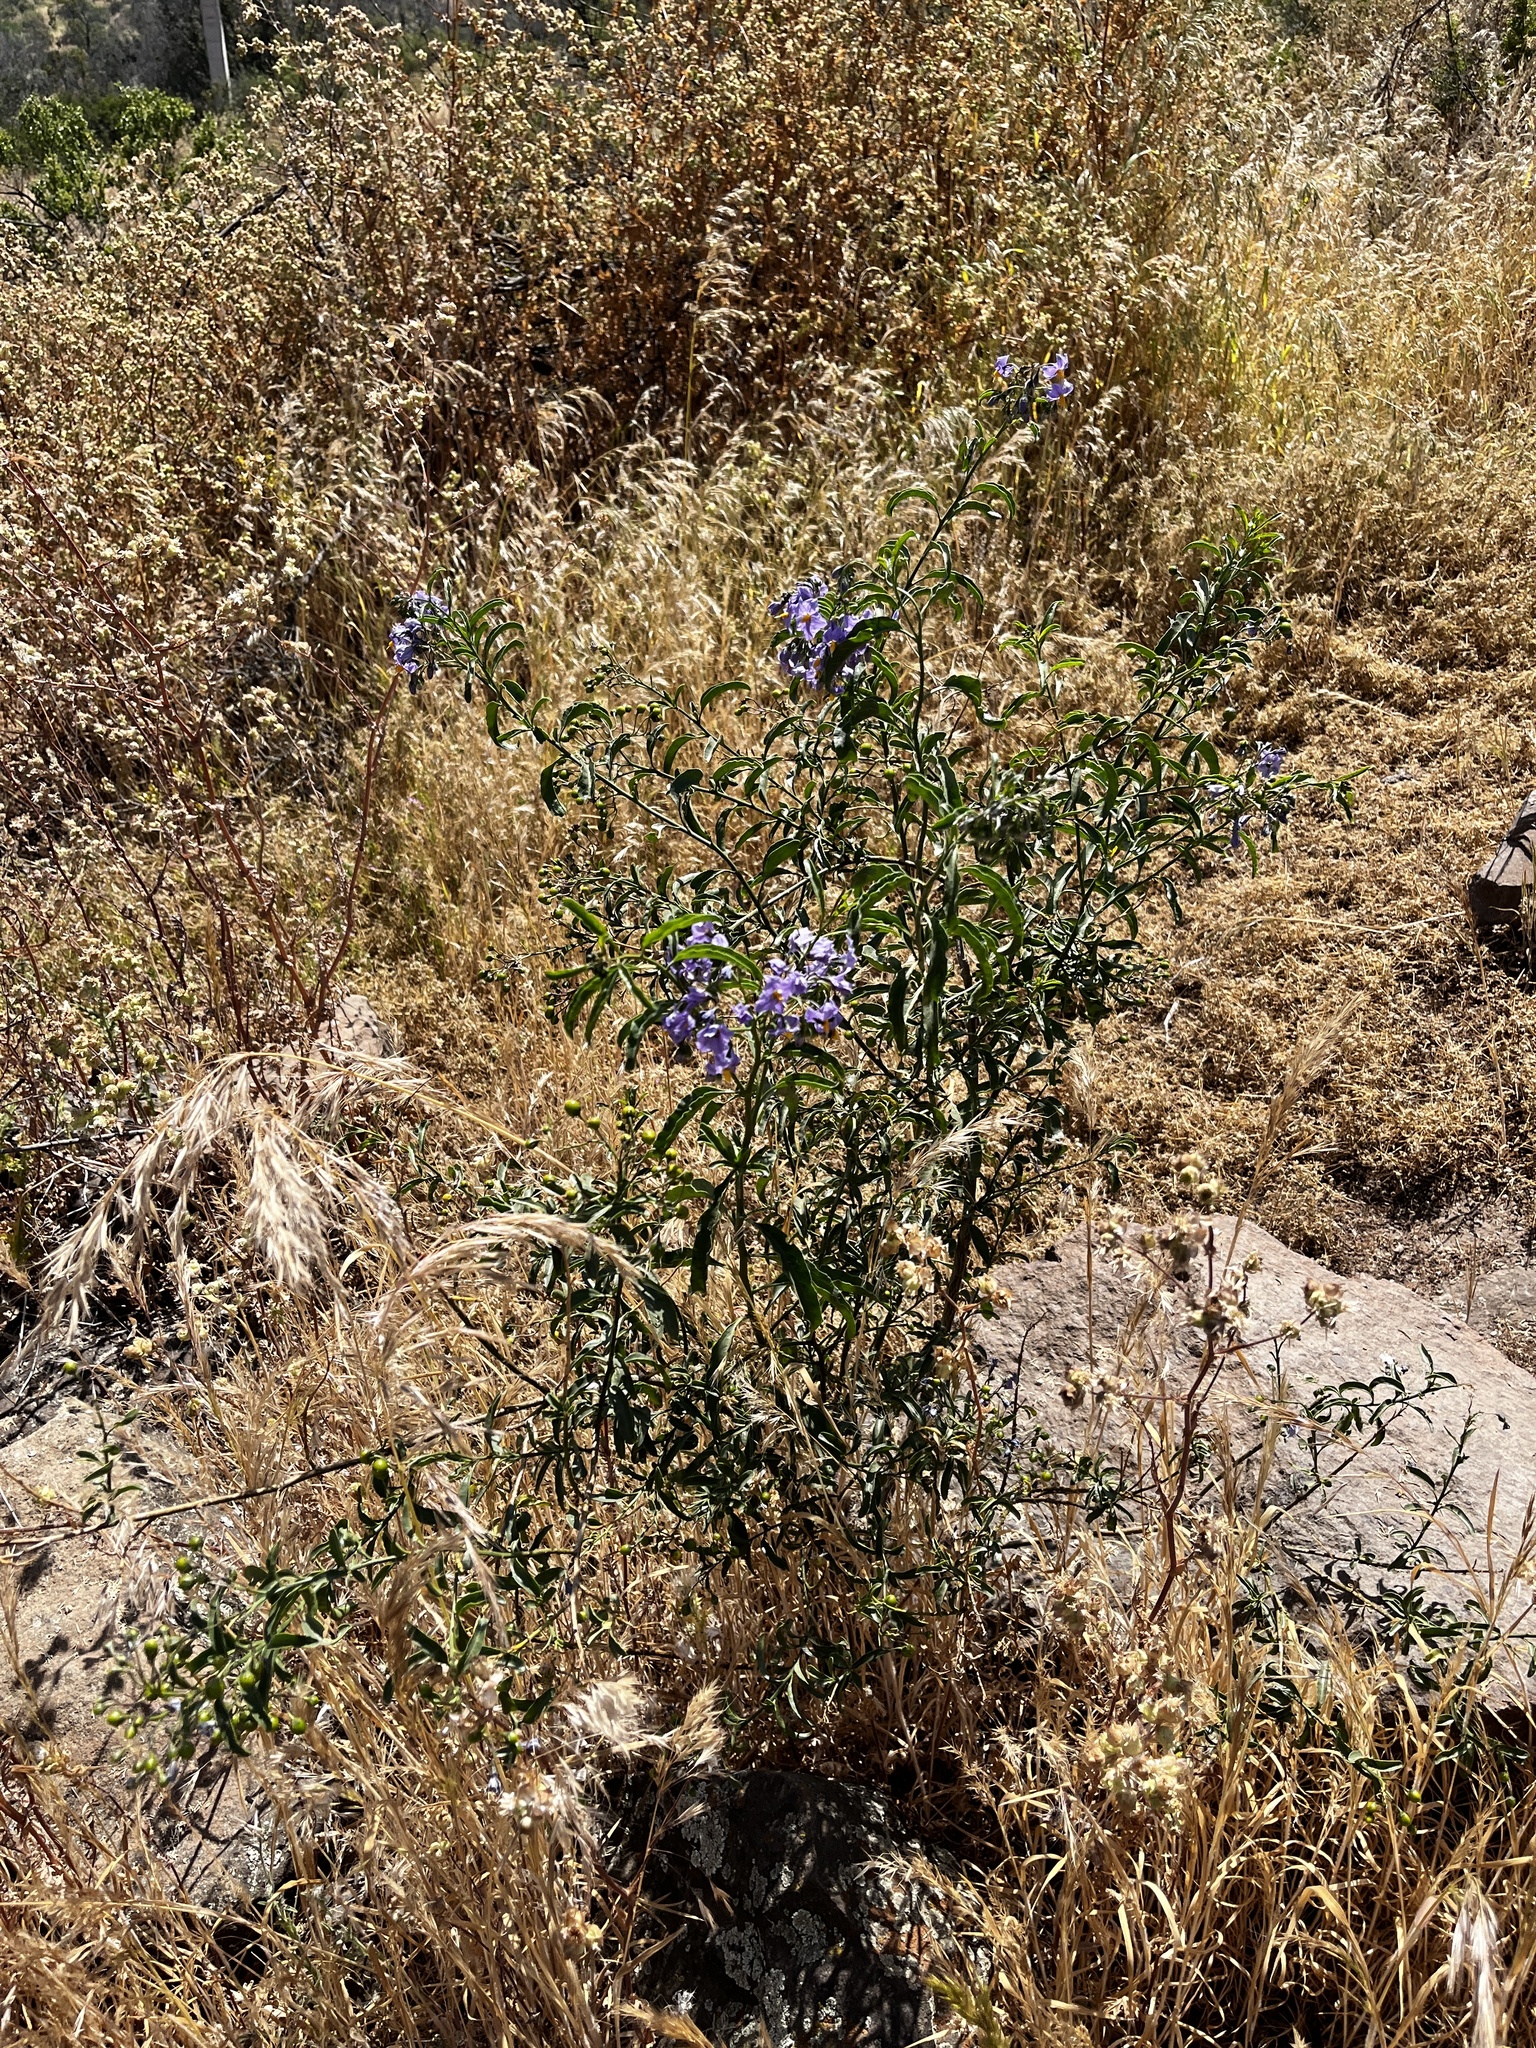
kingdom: Plantae
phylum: Tracheophyta
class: Magnoliopsida
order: Solanales
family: Solanaceae
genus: Solanum
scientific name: Solanum crispum
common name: Chilean nightshade
